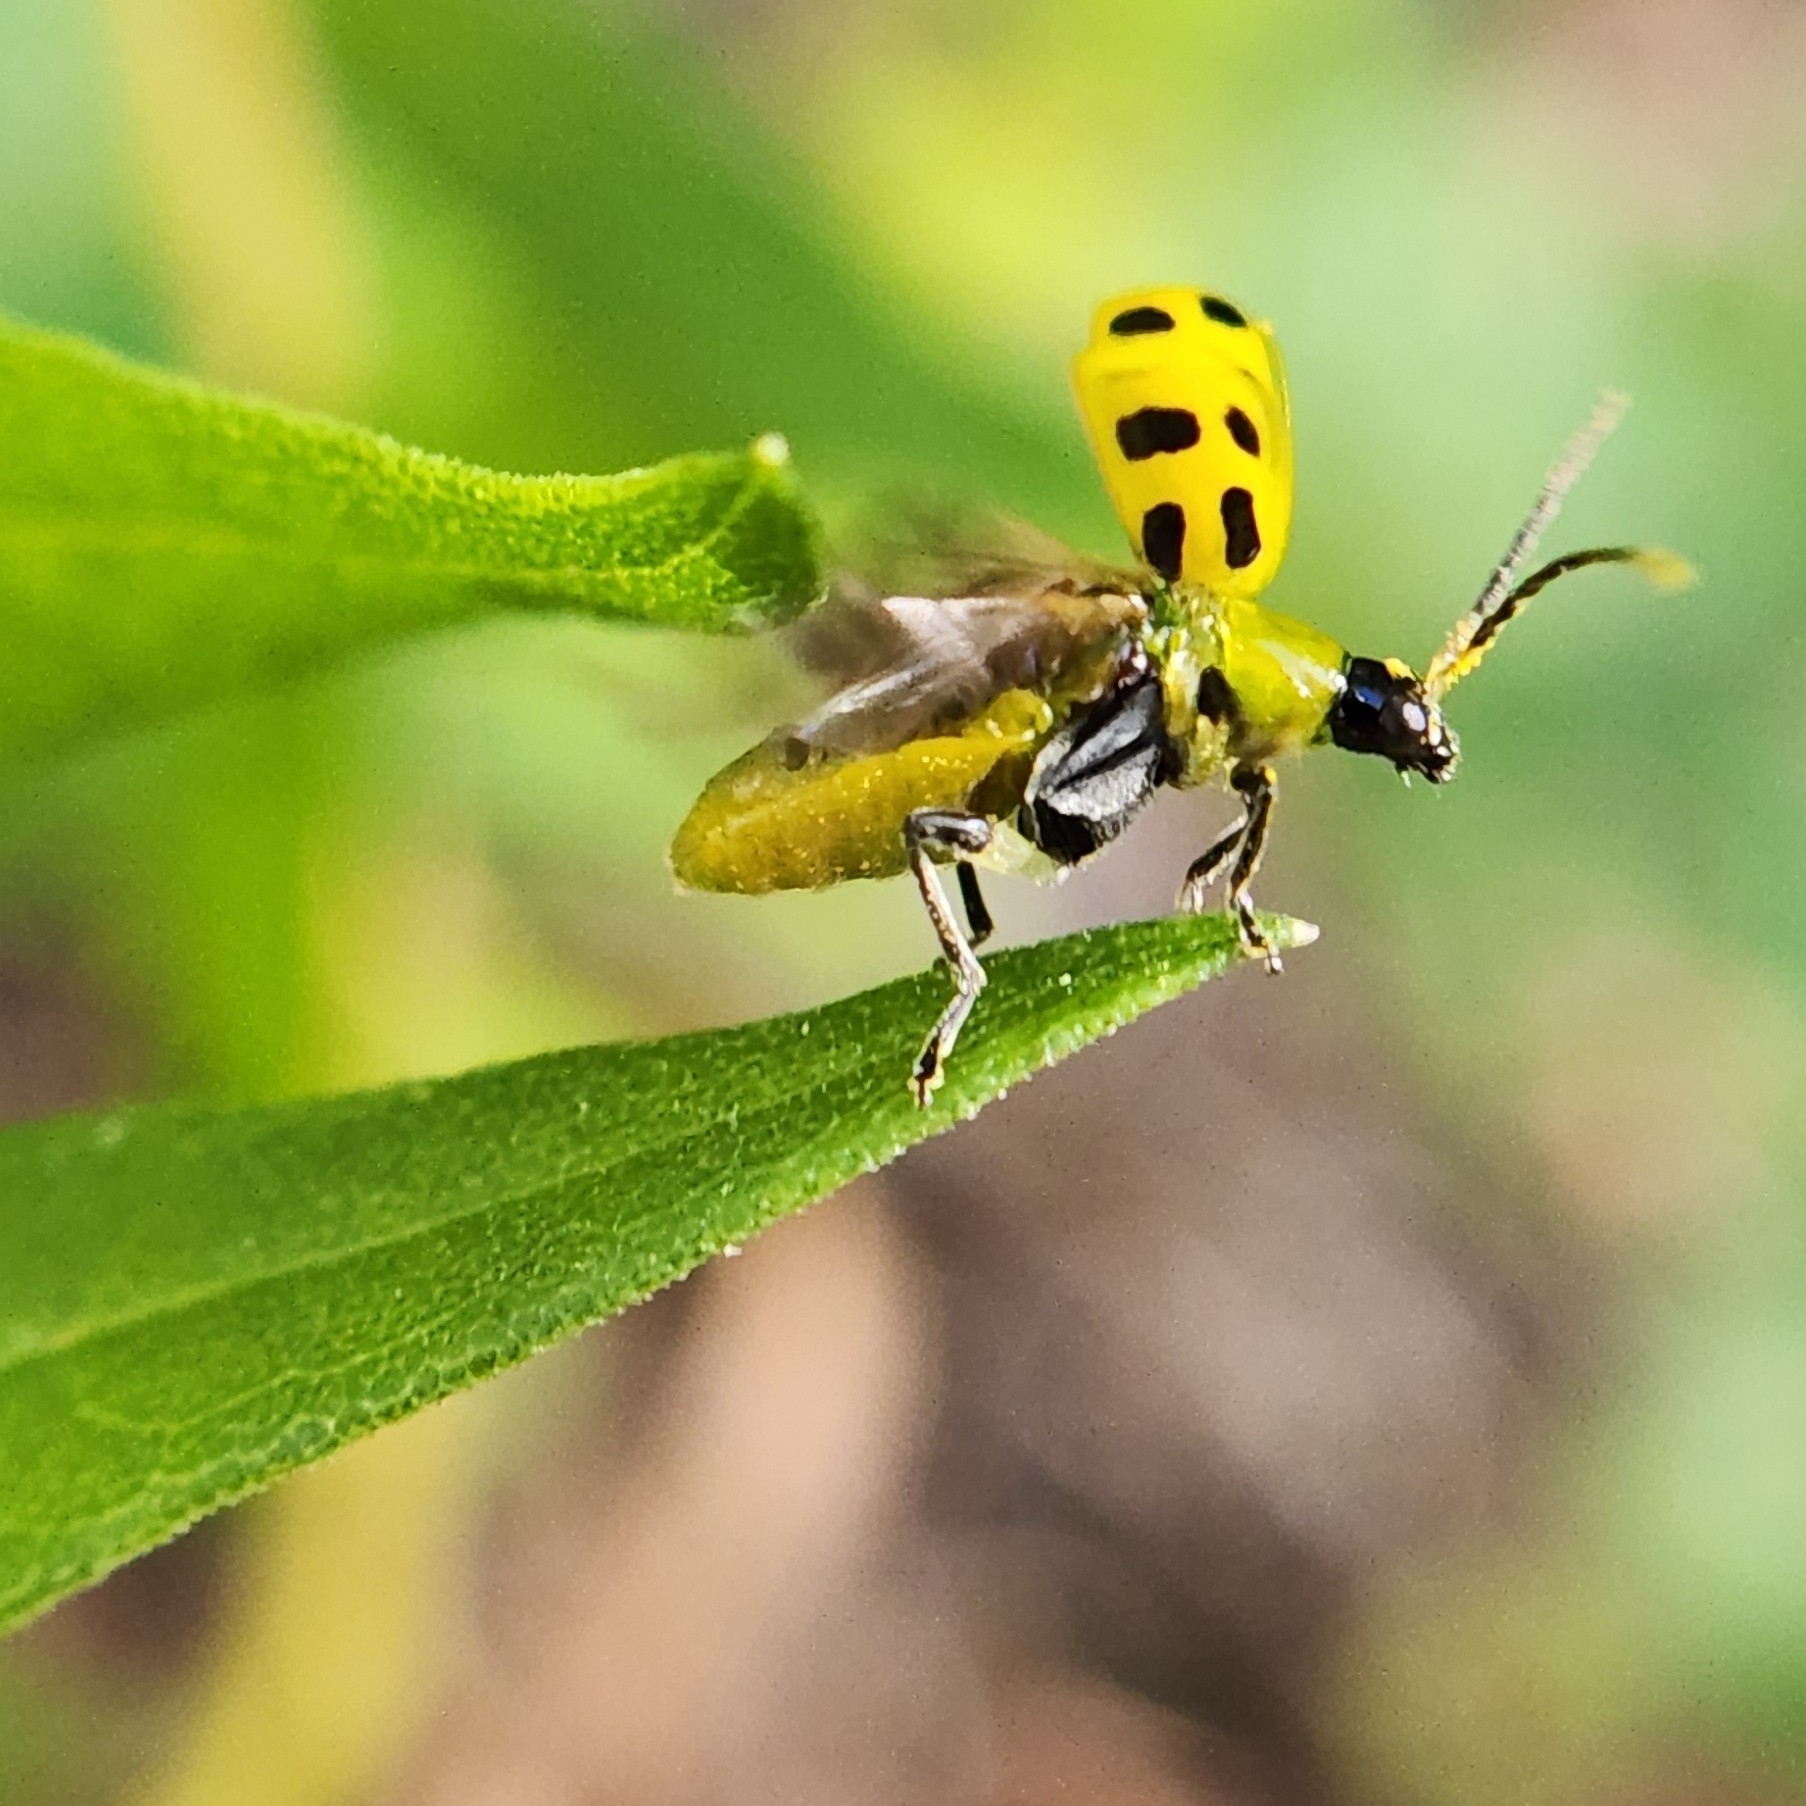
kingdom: Animalia
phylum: Arthropoda
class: Insecta
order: Coleoptera
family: Chrysomelidae
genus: Diabrotica
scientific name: Diabrotica undecimpunctata
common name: Spotted cucumber beetle
